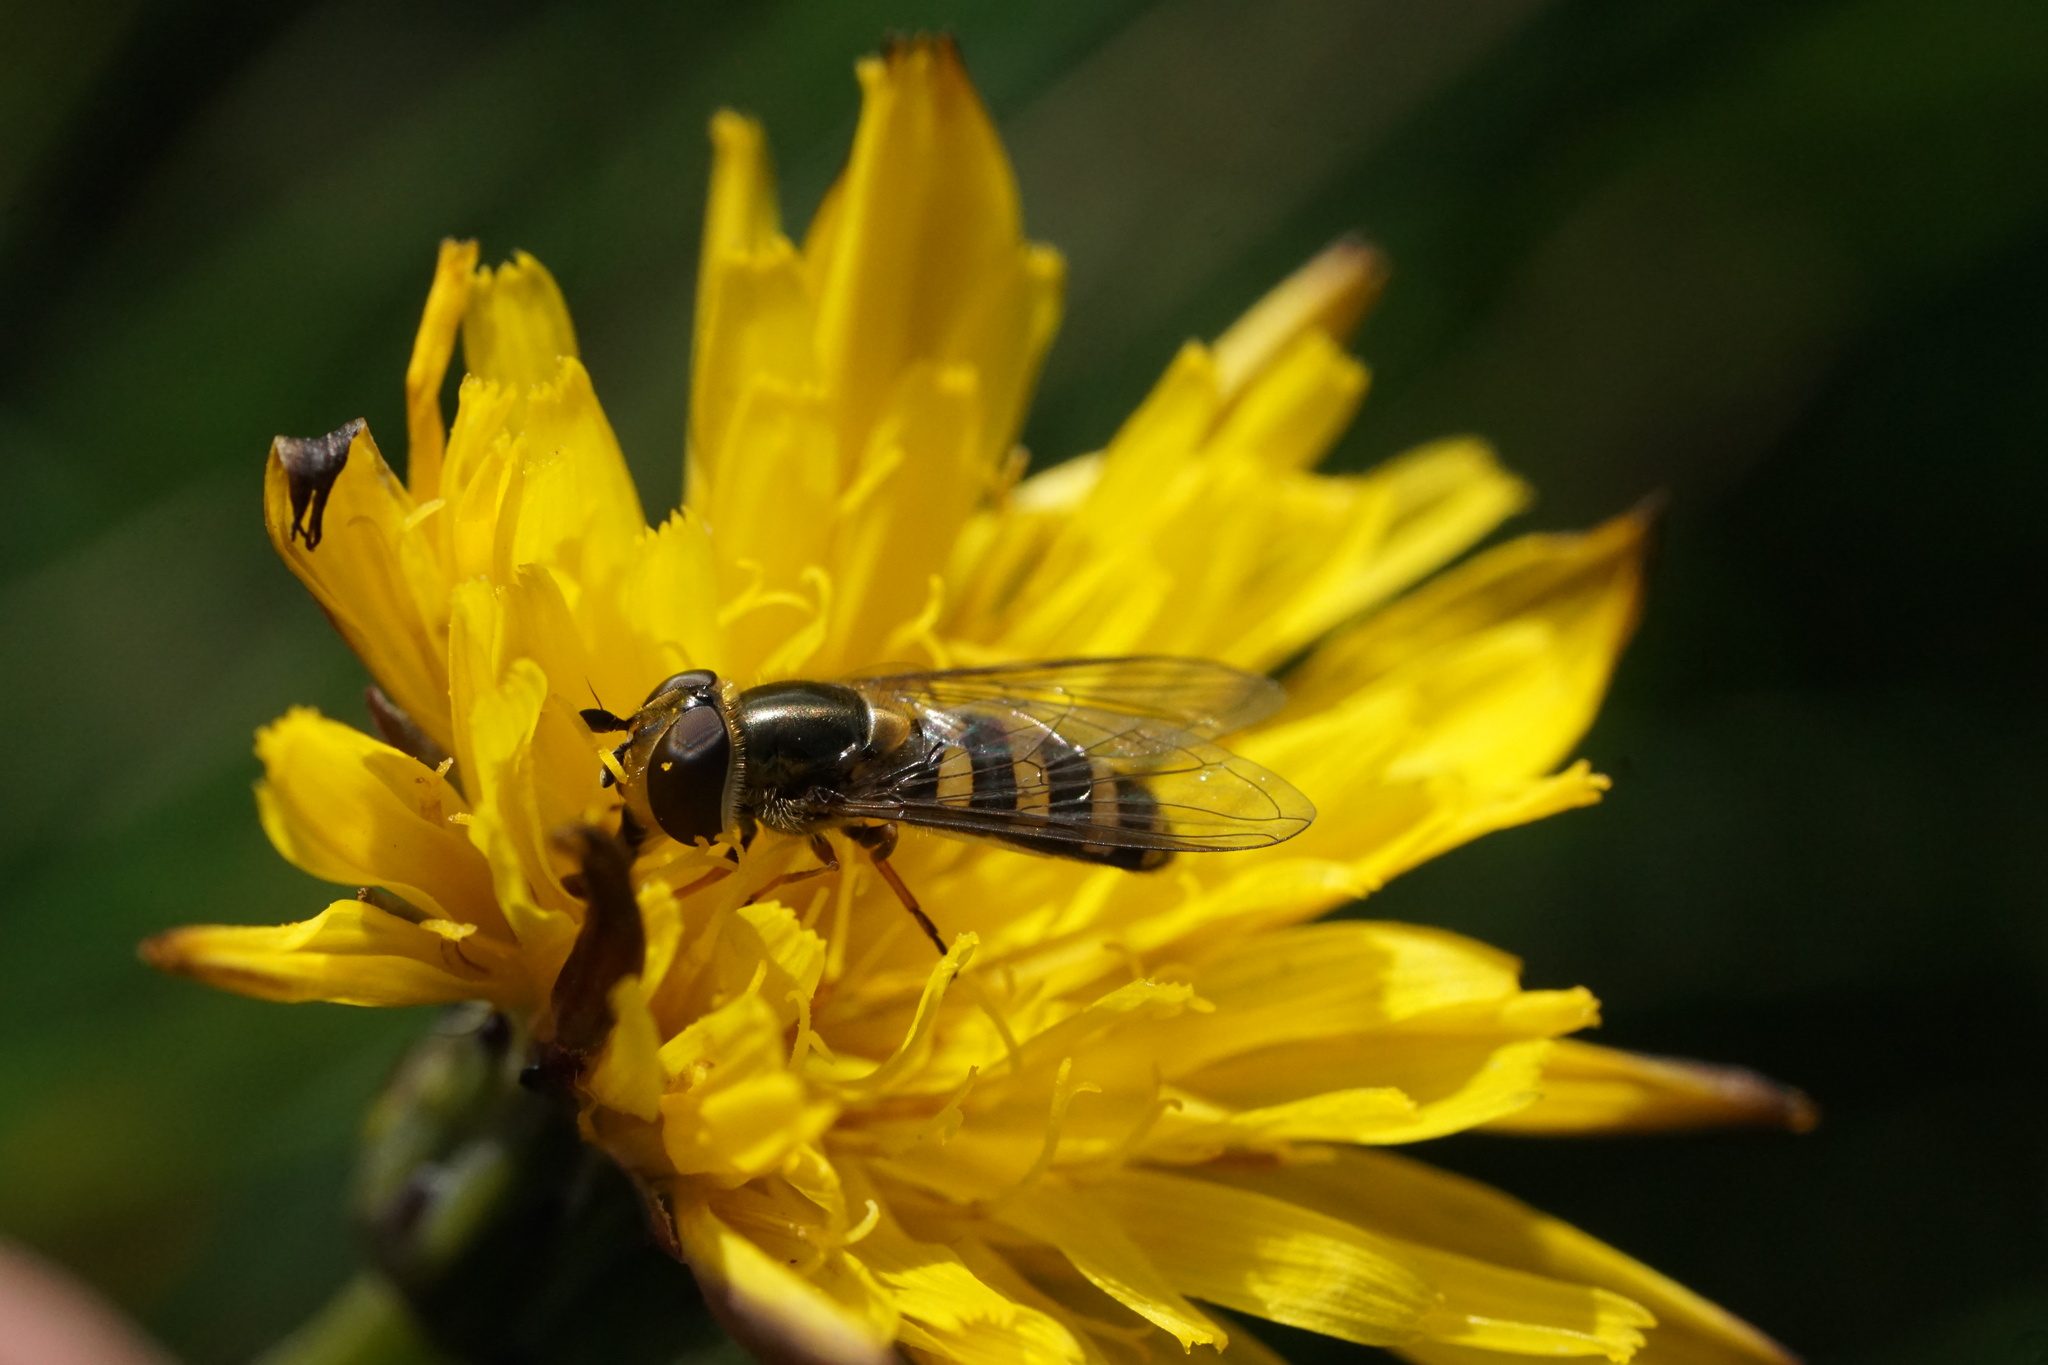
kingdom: Animalia
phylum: Arthropoda
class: Insecta
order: Diptera
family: Syrphidae
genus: Eupeodes
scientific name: Eupeodes
